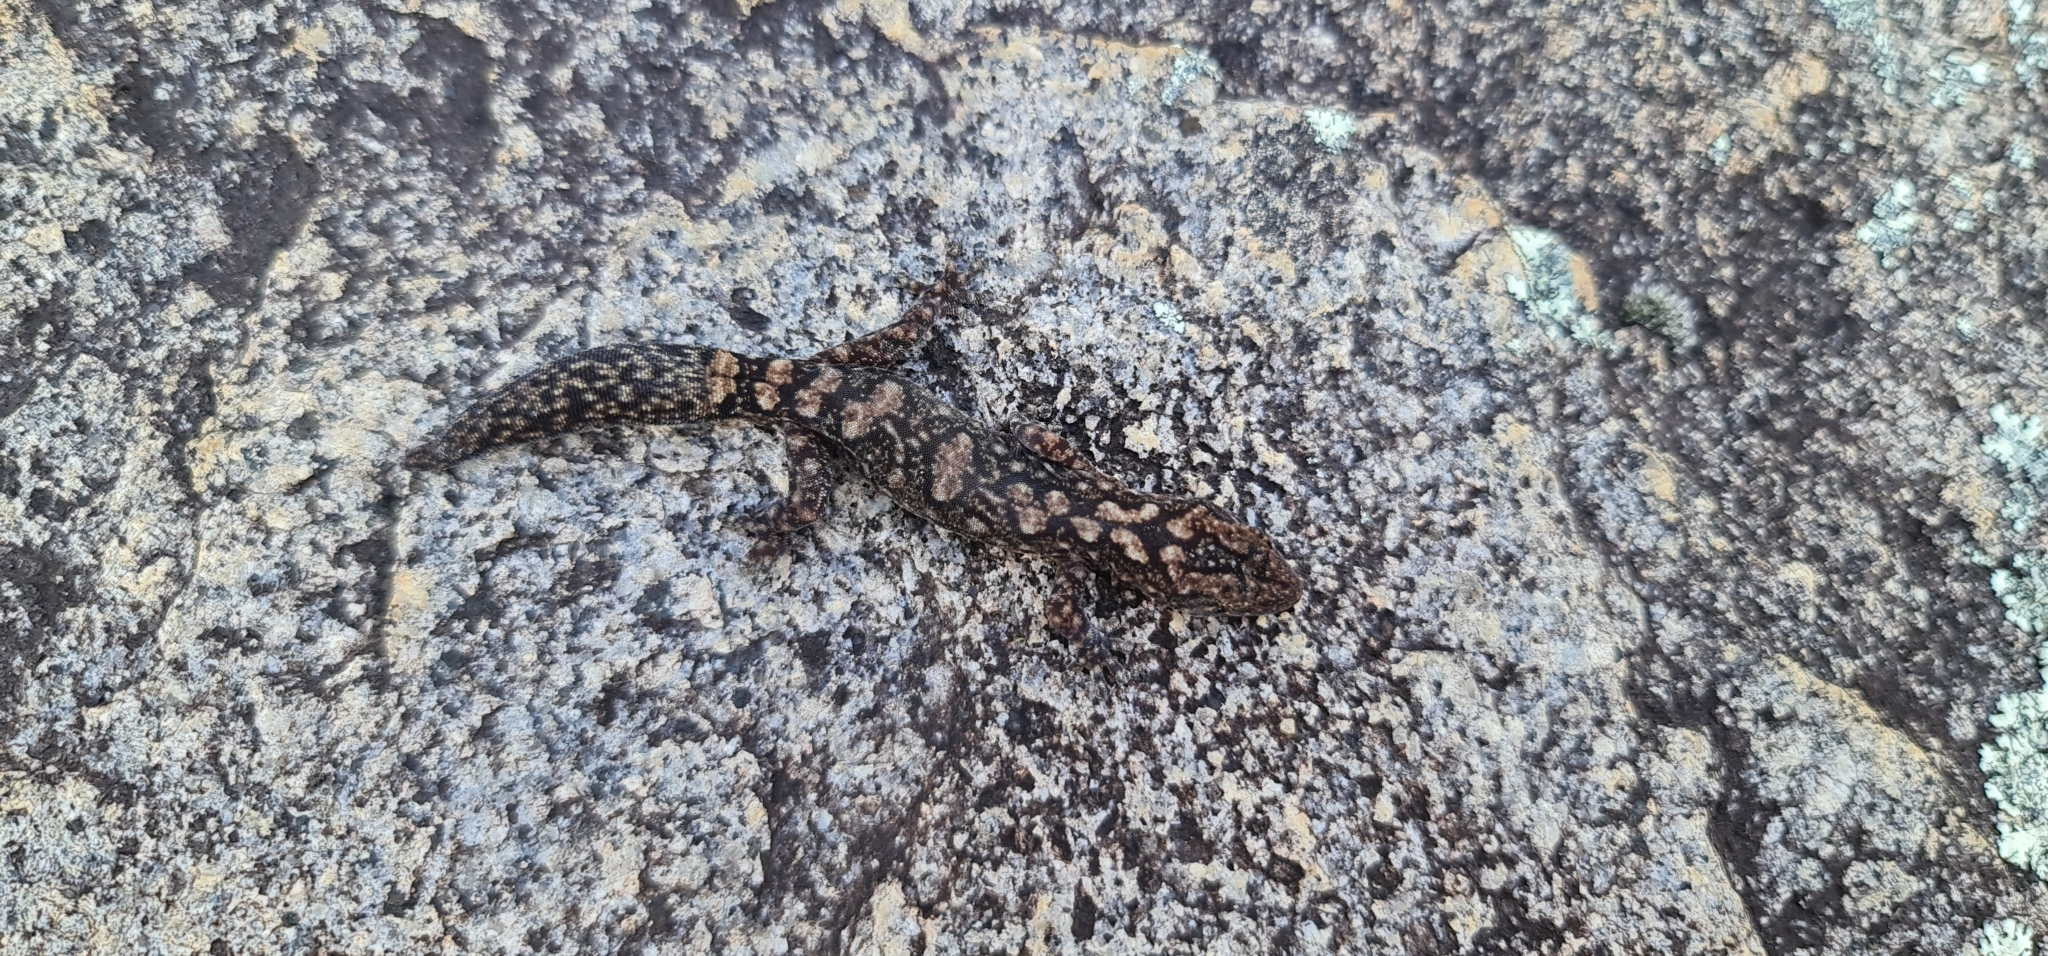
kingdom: Animalia
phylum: Chordata
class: Squamata
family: Diplodactylidae
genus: Amalosia
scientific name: Amalosia lesueurii
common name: Lesueur's gecko
